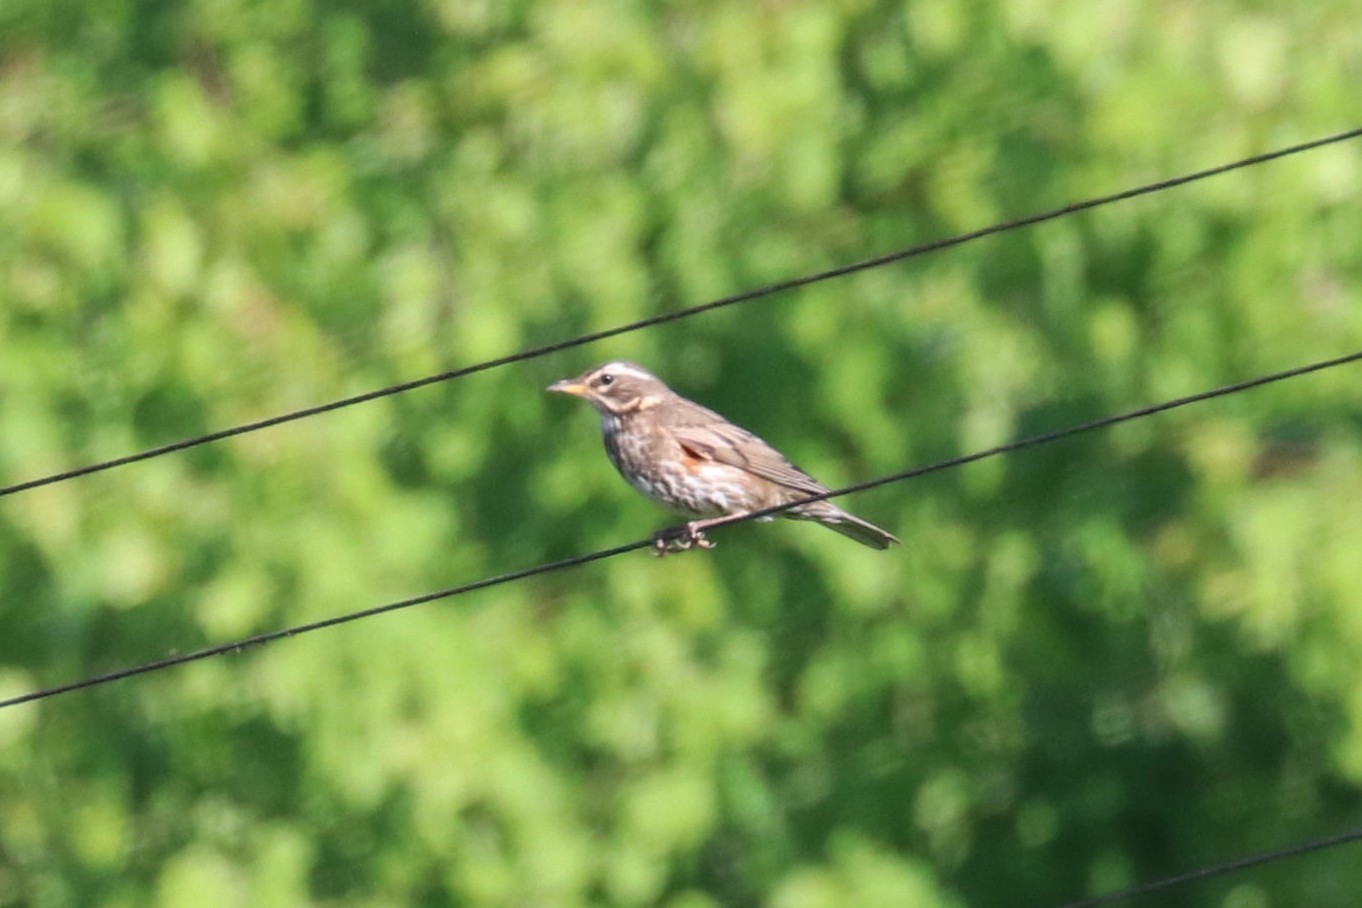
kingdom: Animalia
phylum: Chordata
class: Aves
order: Passeriformes
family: Turdidae
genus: Turdus
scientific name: Turdus iliacus
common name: Redwing
